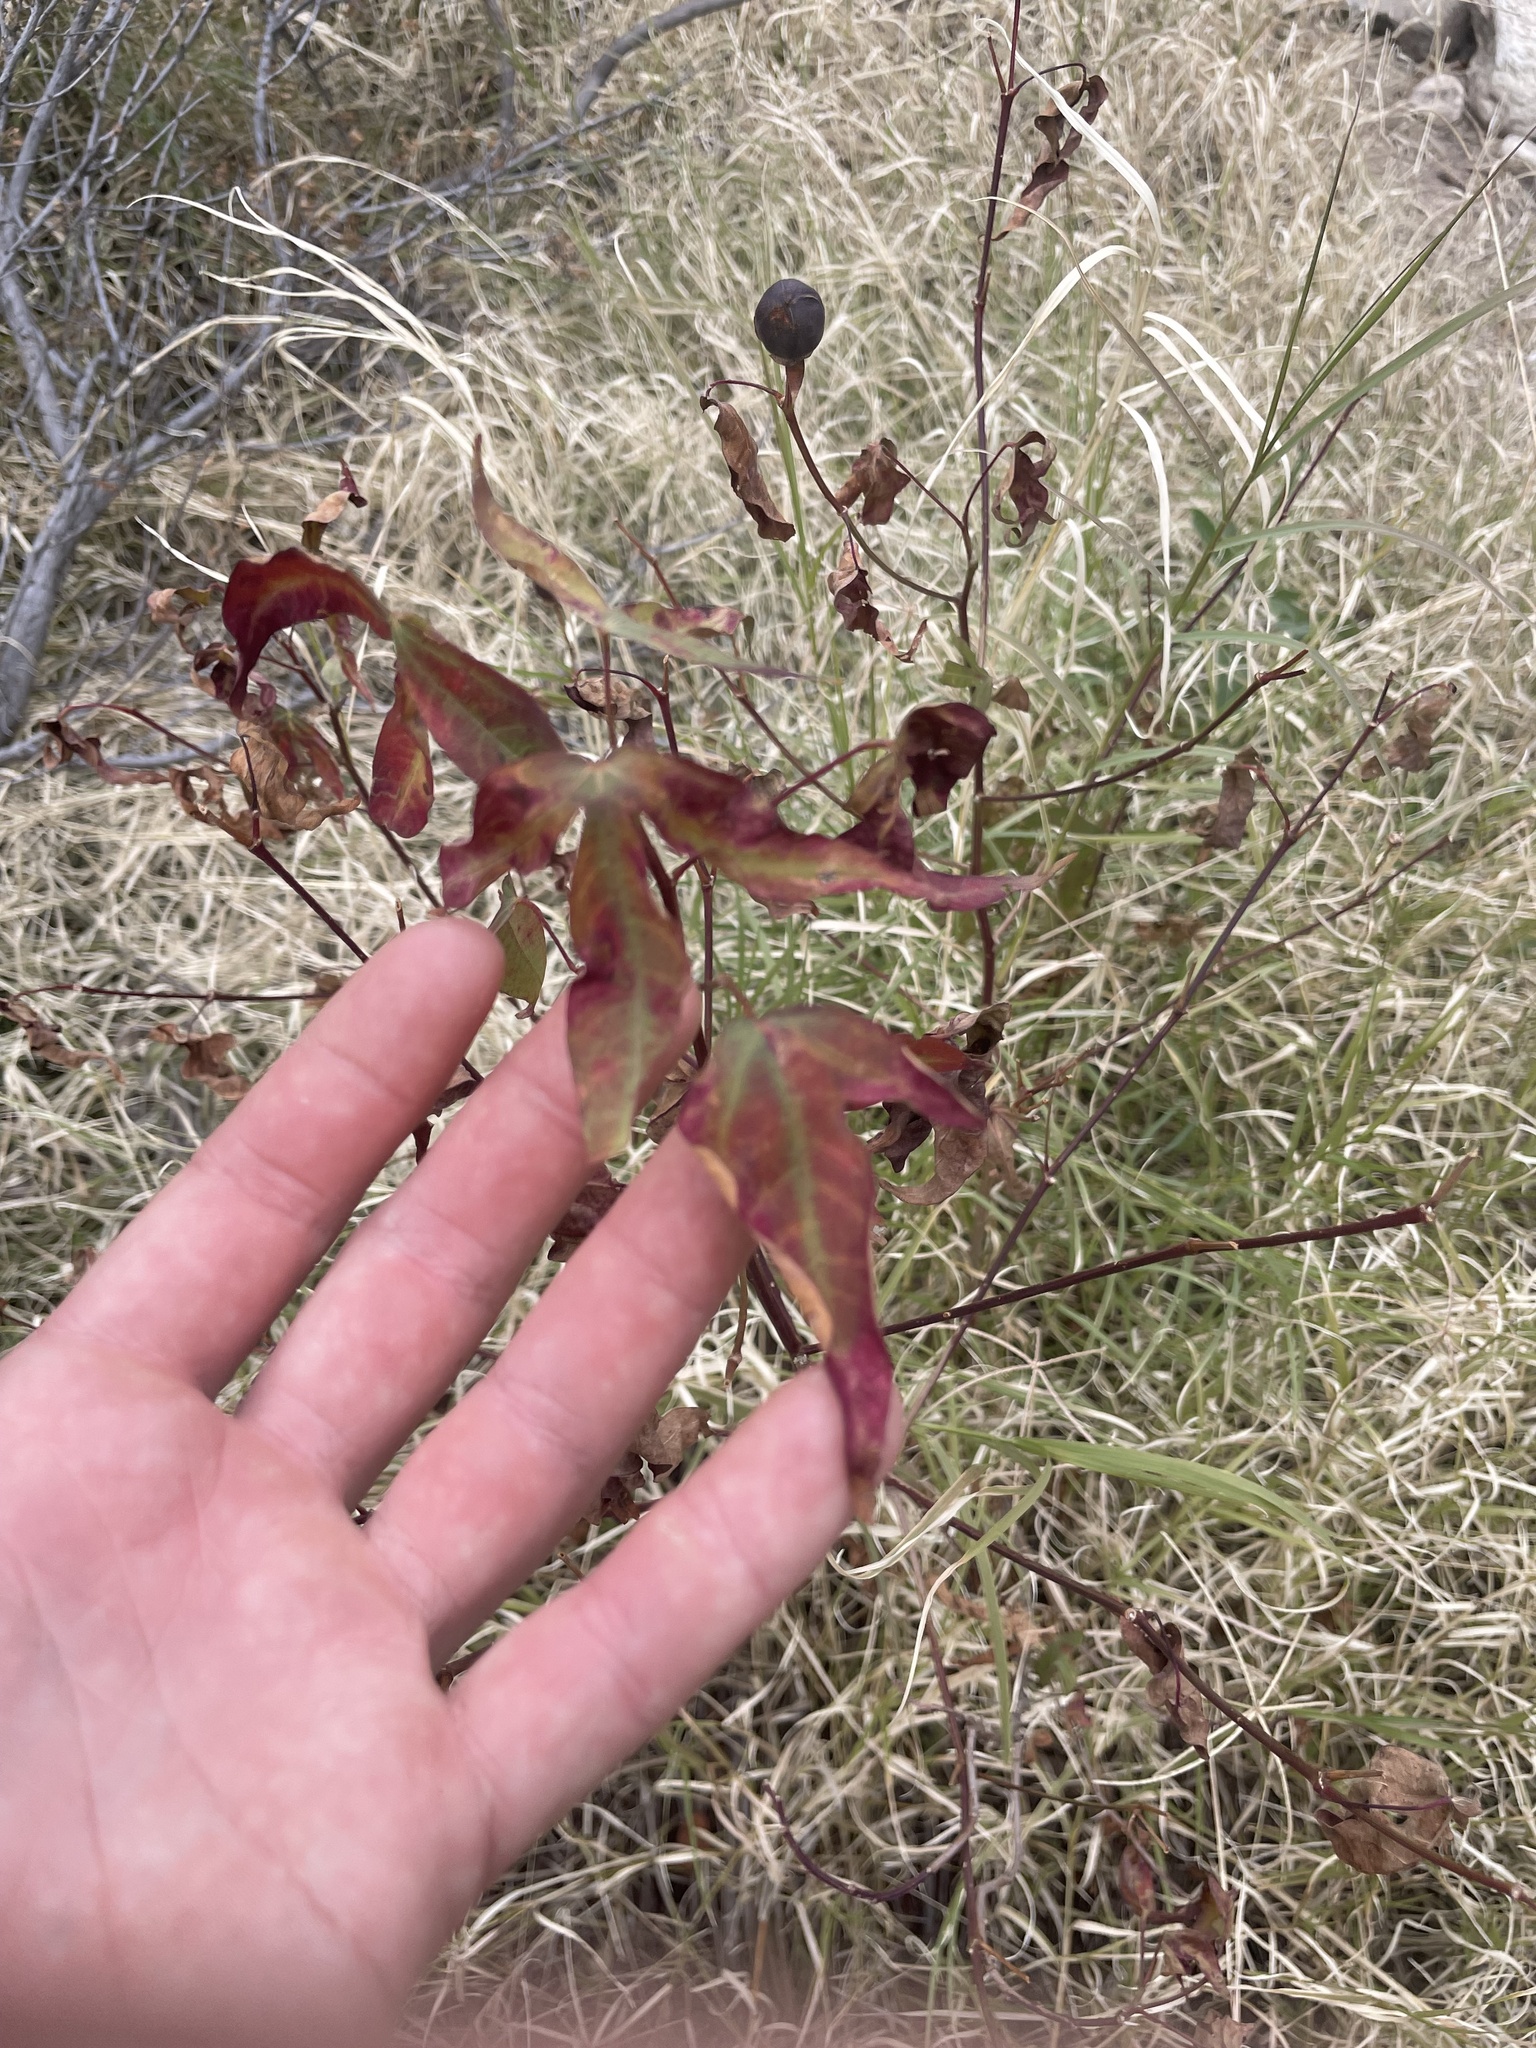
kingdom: Plantae
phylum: Tracheophyta
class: Magnoliopsida
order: Malvales
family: Malvaceae
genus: Gossypium
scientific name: Gossypium thurberi
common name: Desert cotton
